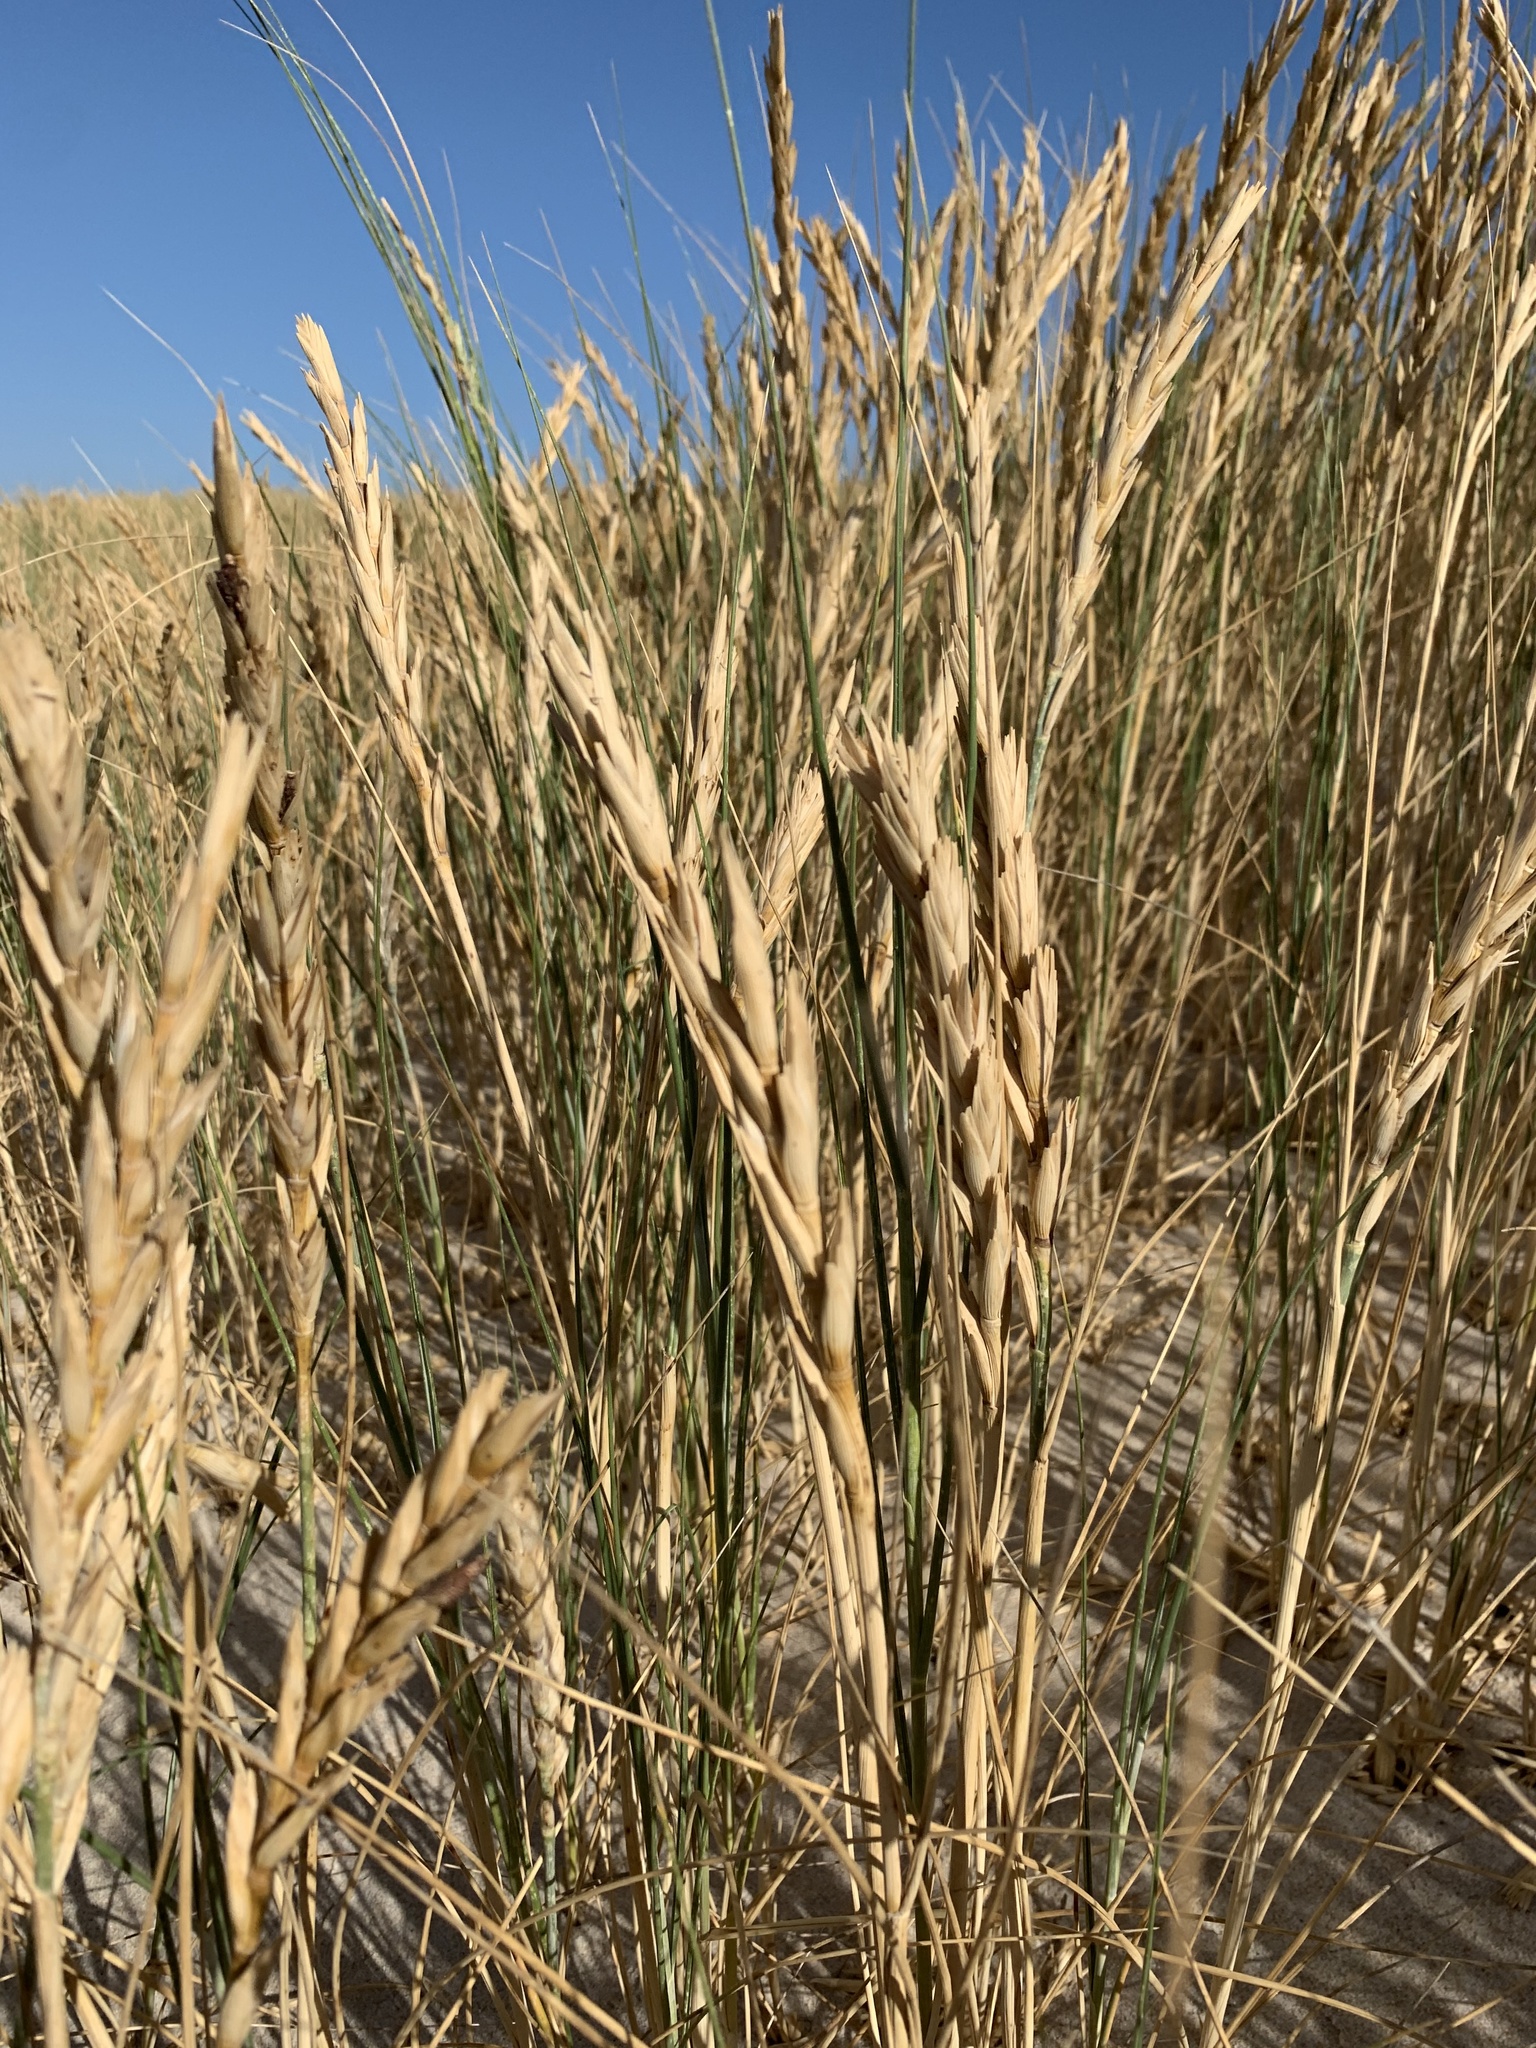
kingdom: Plantae
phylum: Tracheophyta
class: Liliopsida
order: Poales
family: Poaceae
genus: Thinopyrum
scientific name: Thinopyrum distichum
